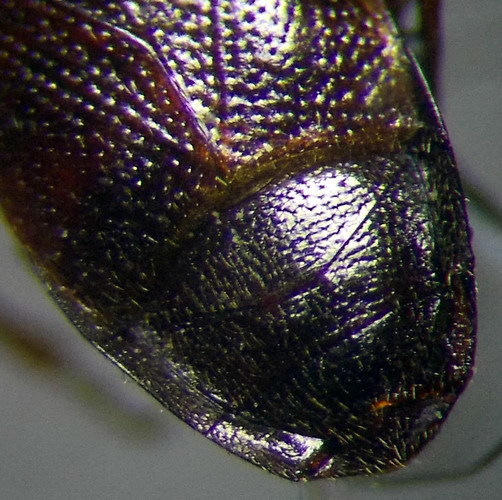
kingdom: Animalia
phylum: Arthropoda
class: Insecta
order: Hemiptera
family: Rhyparochromidae
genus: Plinthisus
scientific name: Plinthisus longicollis
